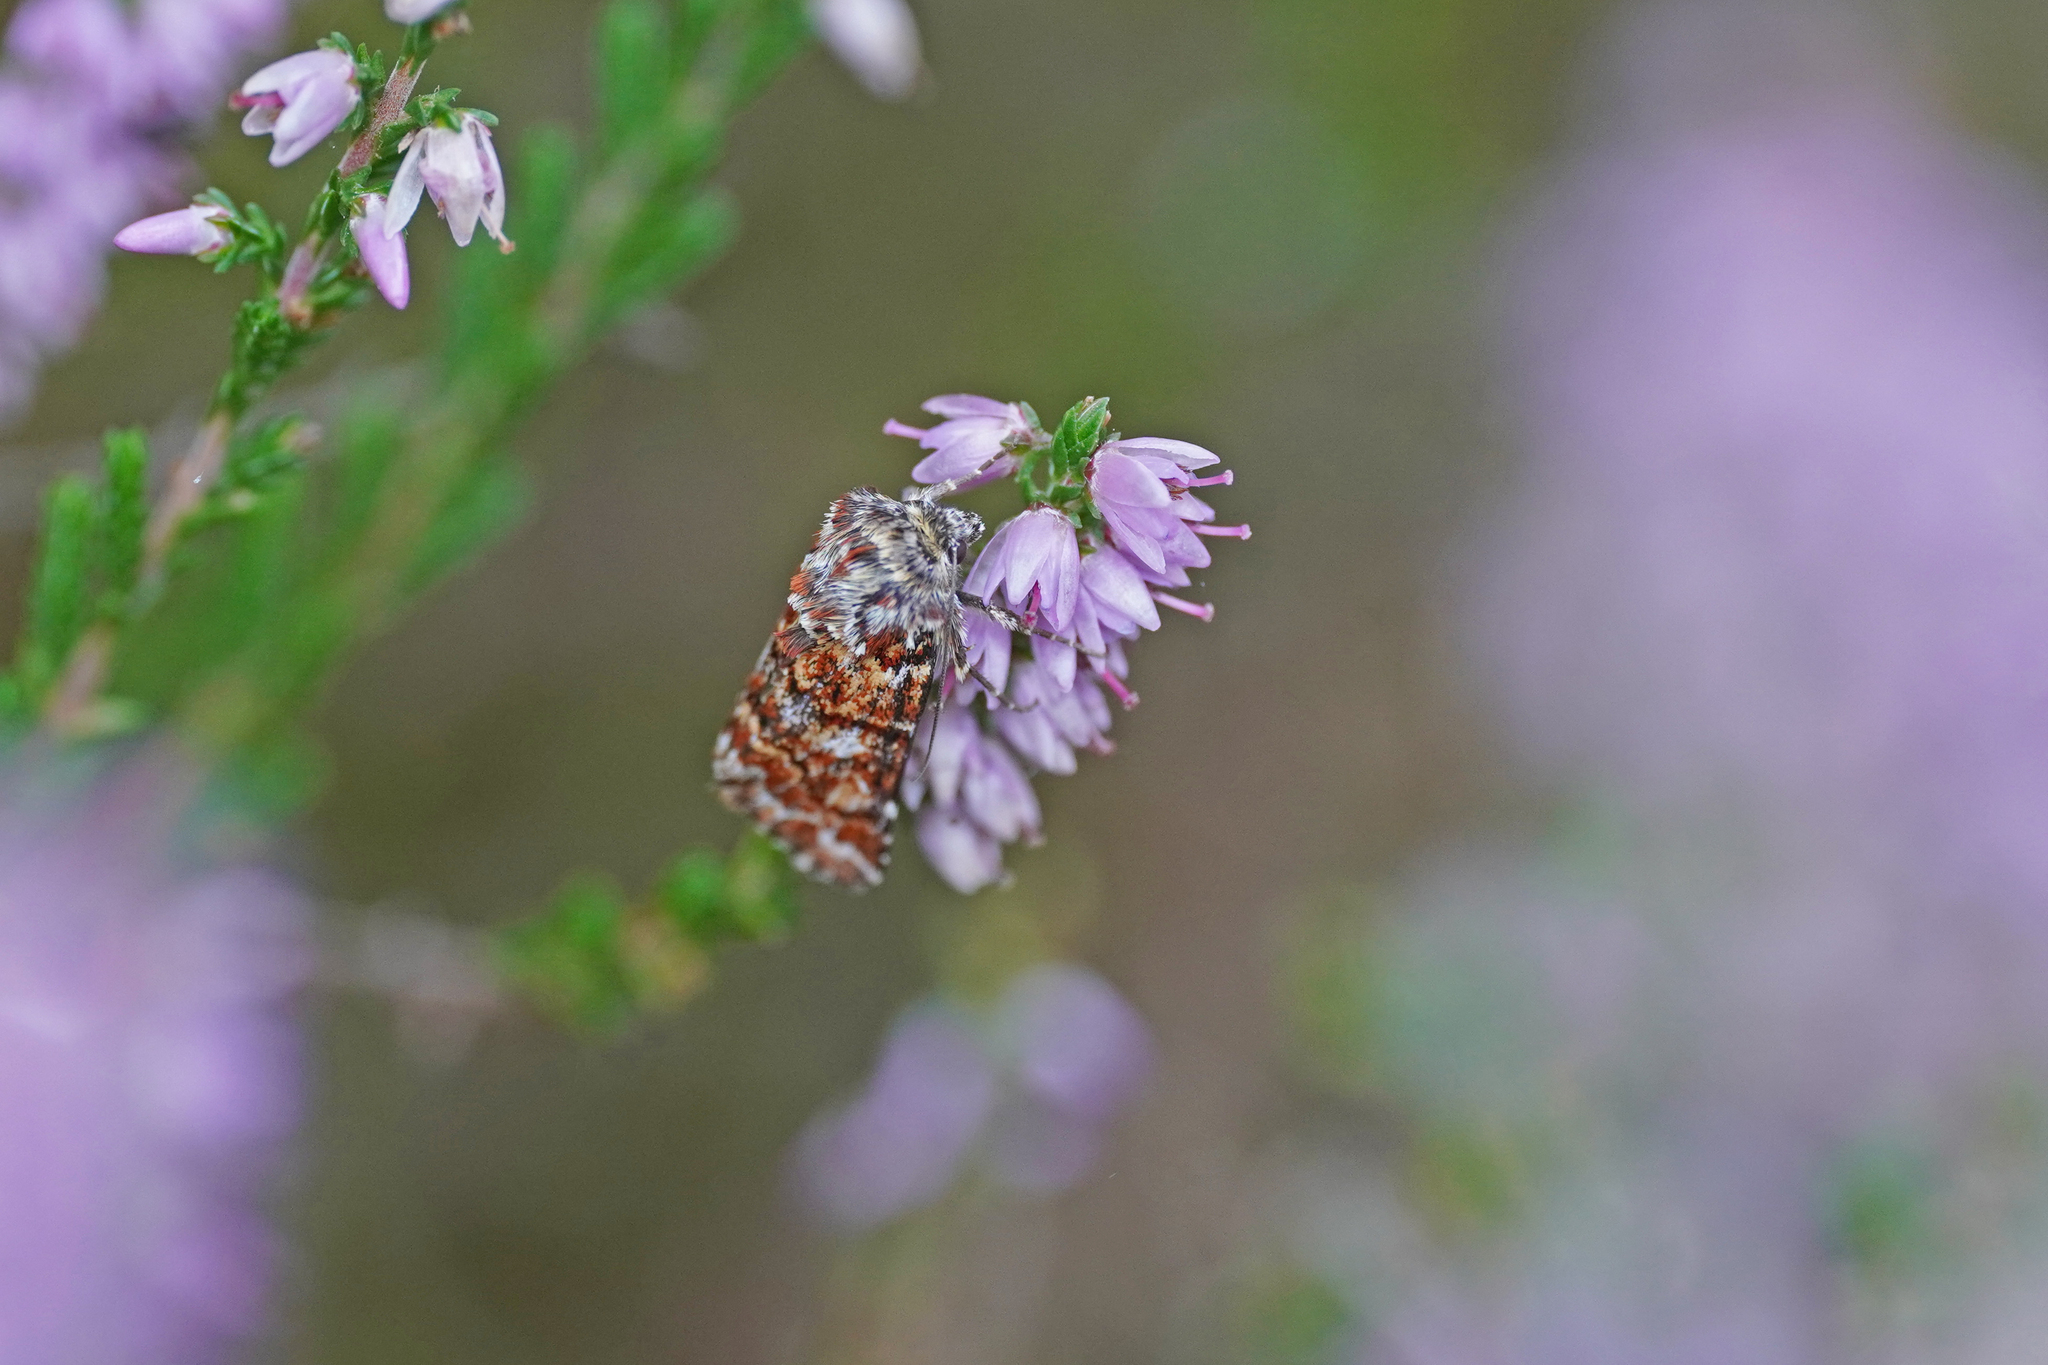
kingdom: Animalia
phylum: Arthropoda
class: Insecta
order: Lepidoptera
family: Noctuidae
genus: Anarta
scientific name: Anarta myrtilli
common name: Beautiful yellow underwing
